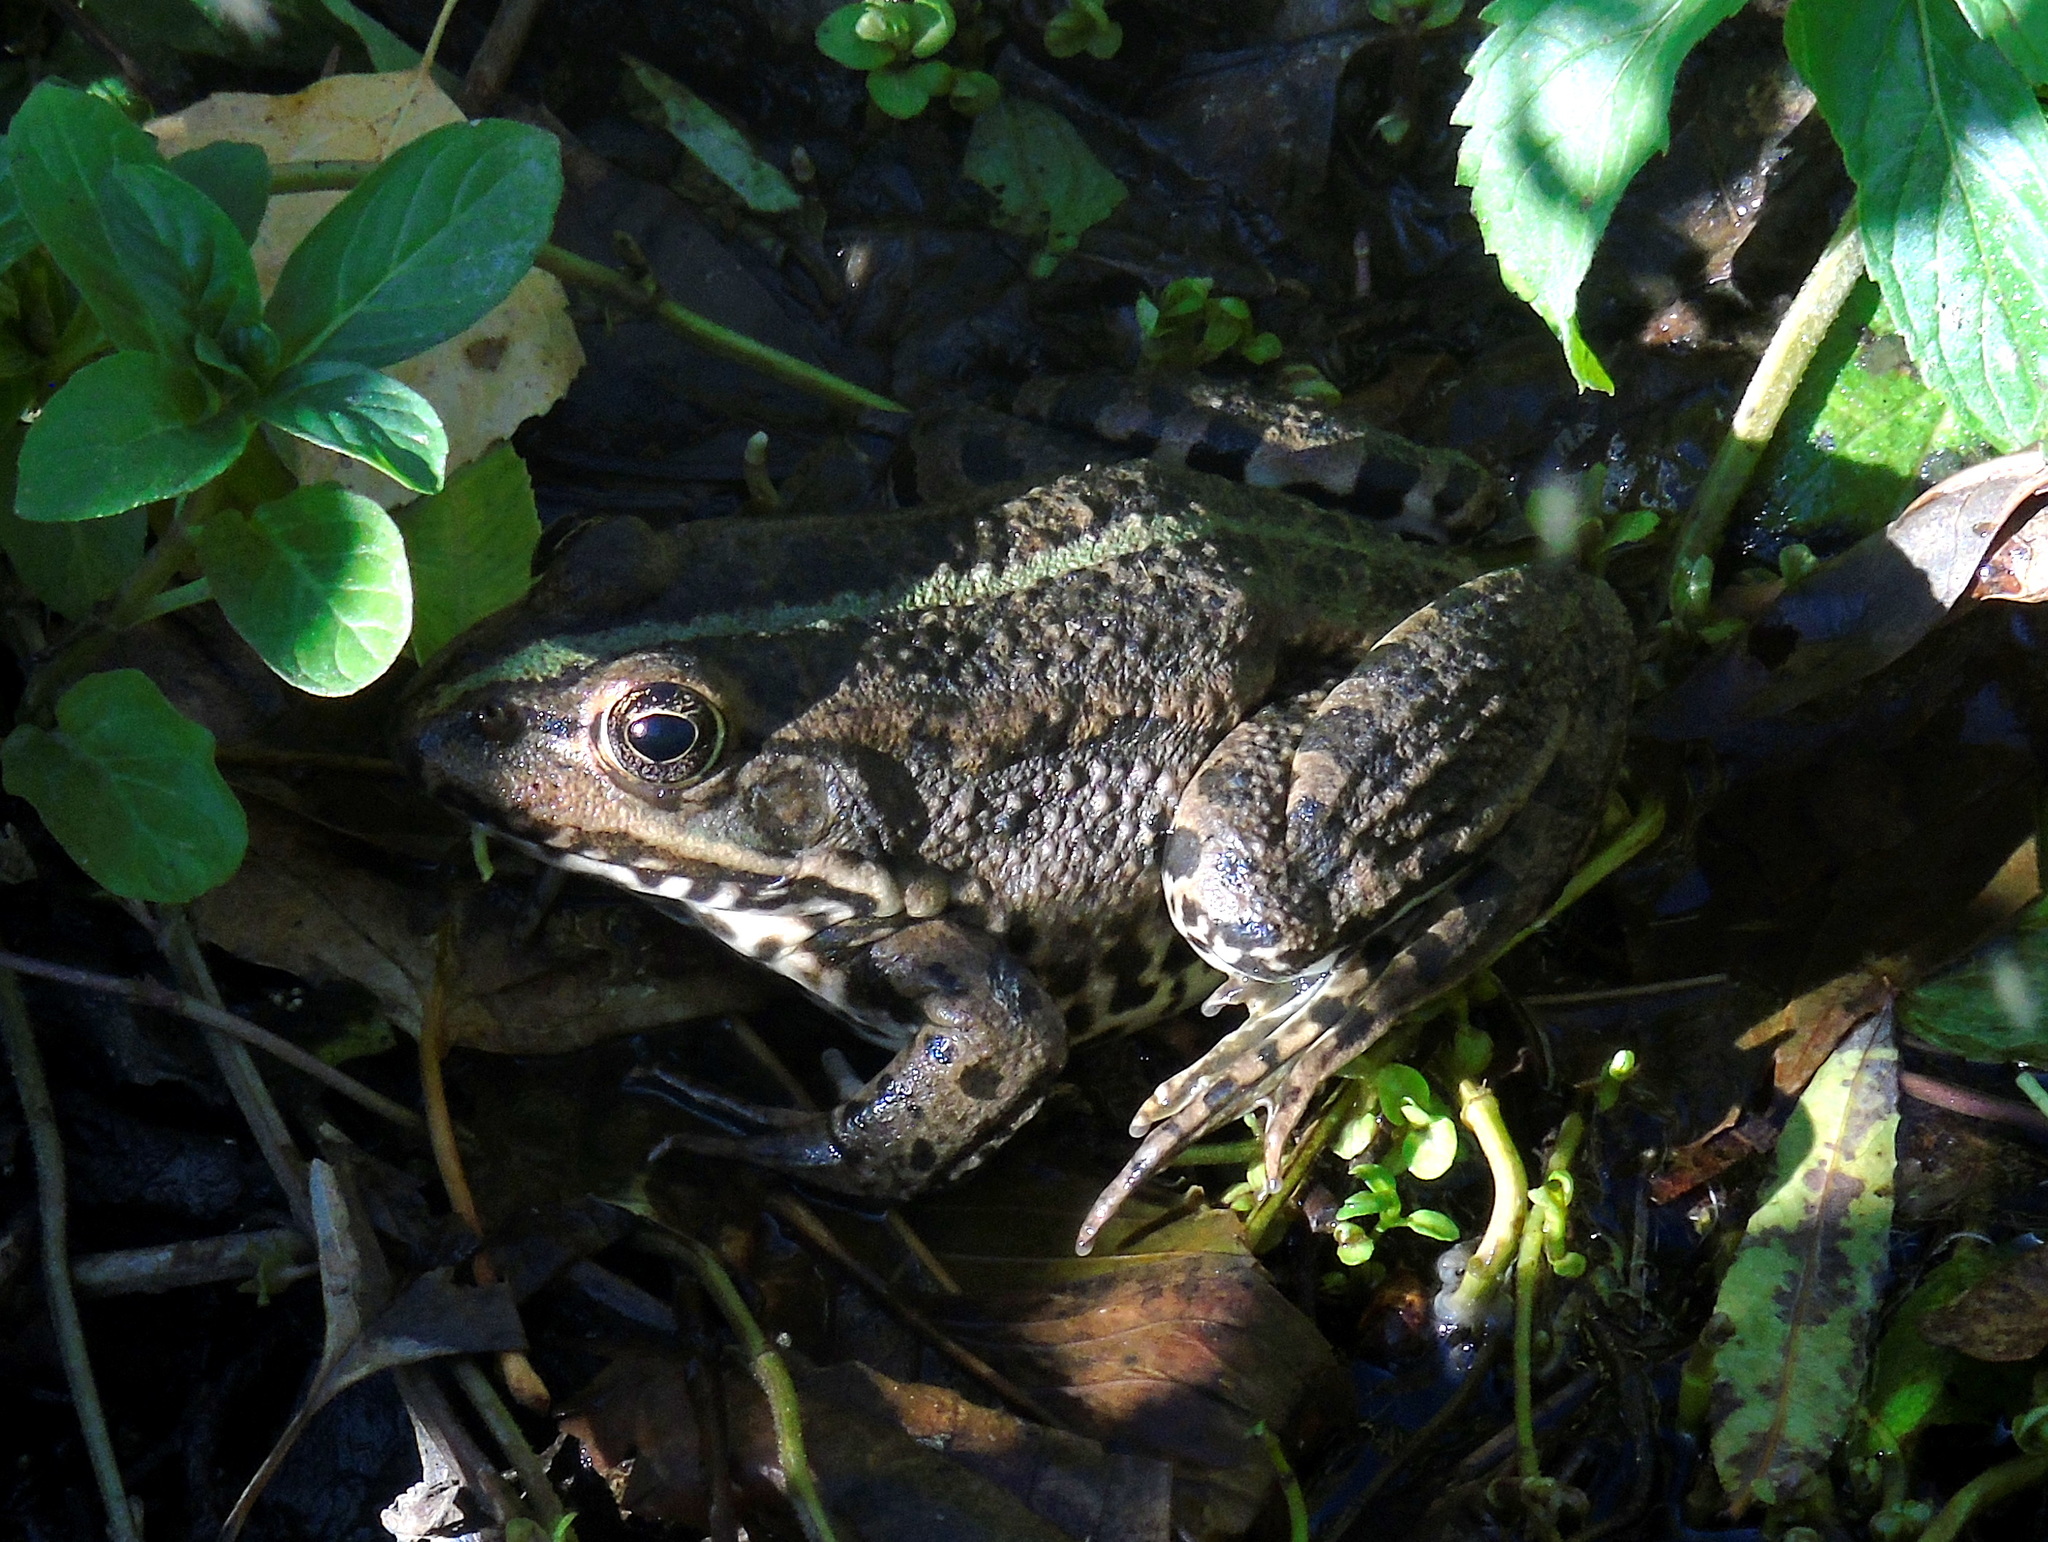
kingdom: Animalia
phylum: Chordata
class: Amphibia
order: Anura
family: Ranidae
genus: Pelophylax
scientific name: Pelophylax ridibundus
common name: Marsh frog
